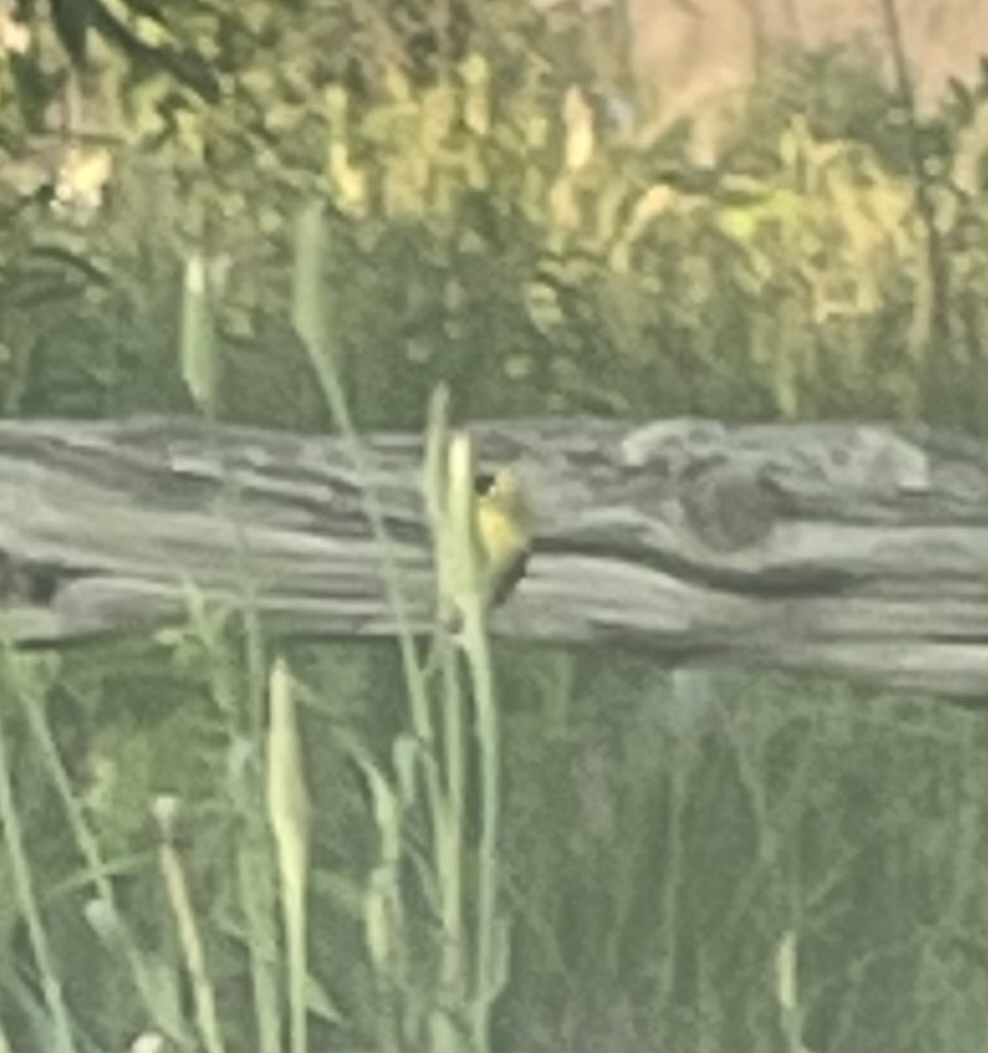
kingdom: Animalia
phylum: Chordata
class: Aves
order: Passeriformes
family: Fringillidae
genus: Spinus
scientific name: Spinus tristis
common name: American goldfinch
